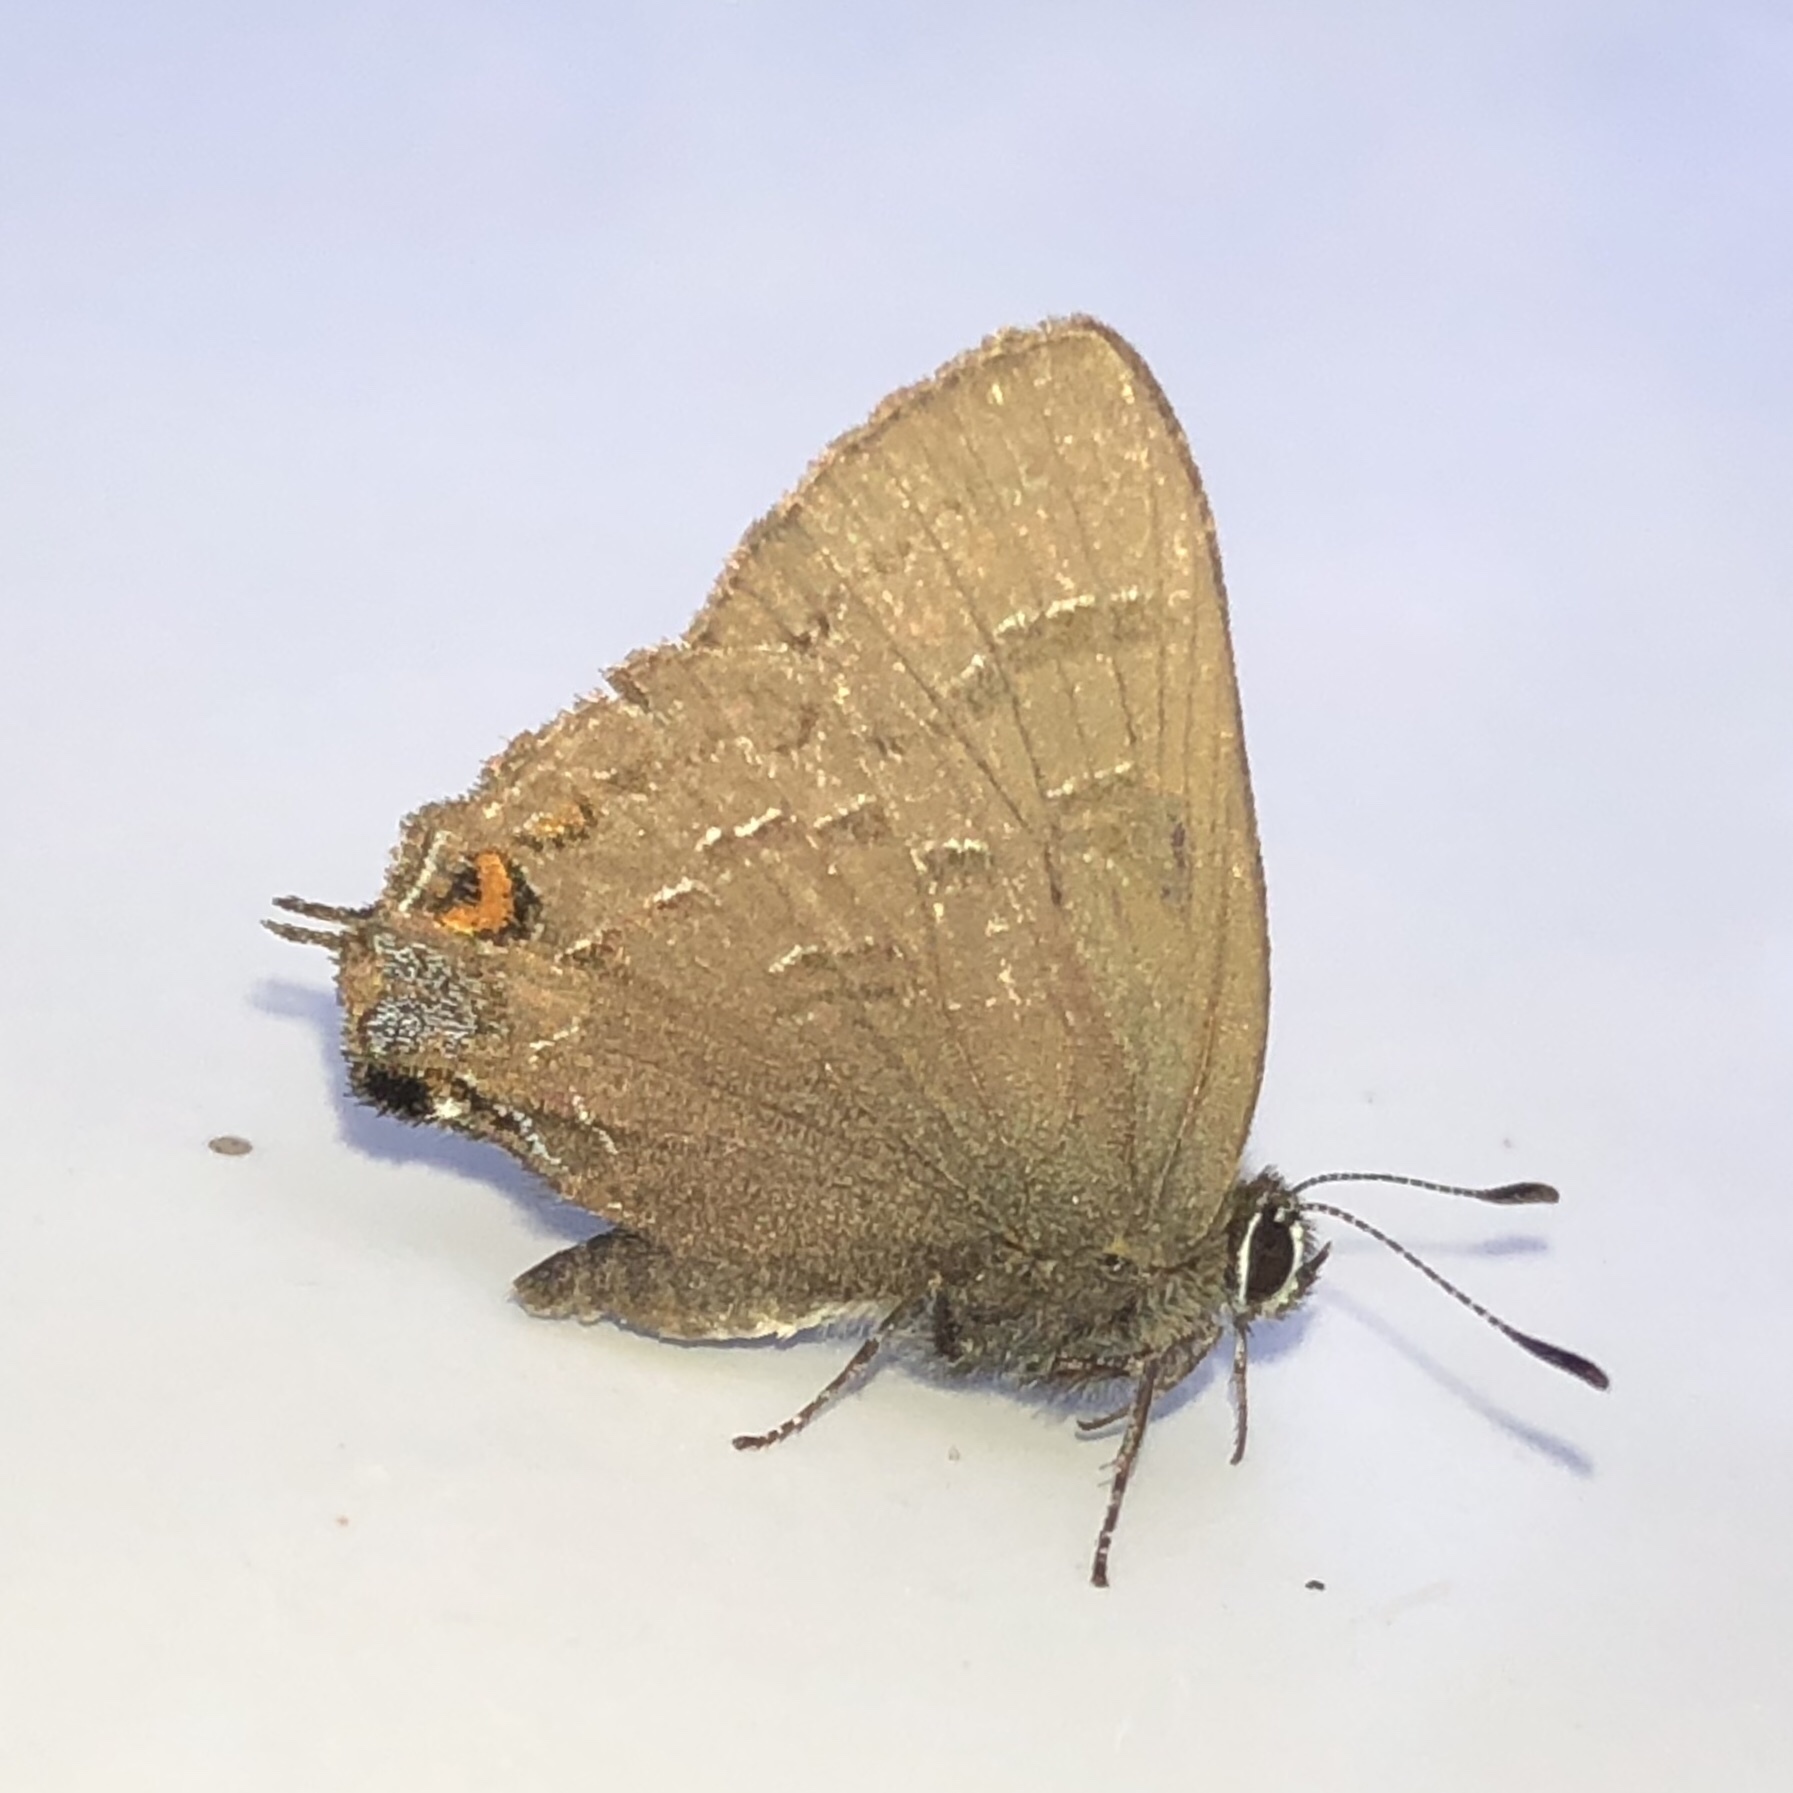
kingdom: Animalia
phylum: Arthropoda
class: Insecta
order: Lepidoptera
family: Lycaenidae
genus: Satyrium
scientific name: Satyrium calanus
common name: Banded hairstreak
